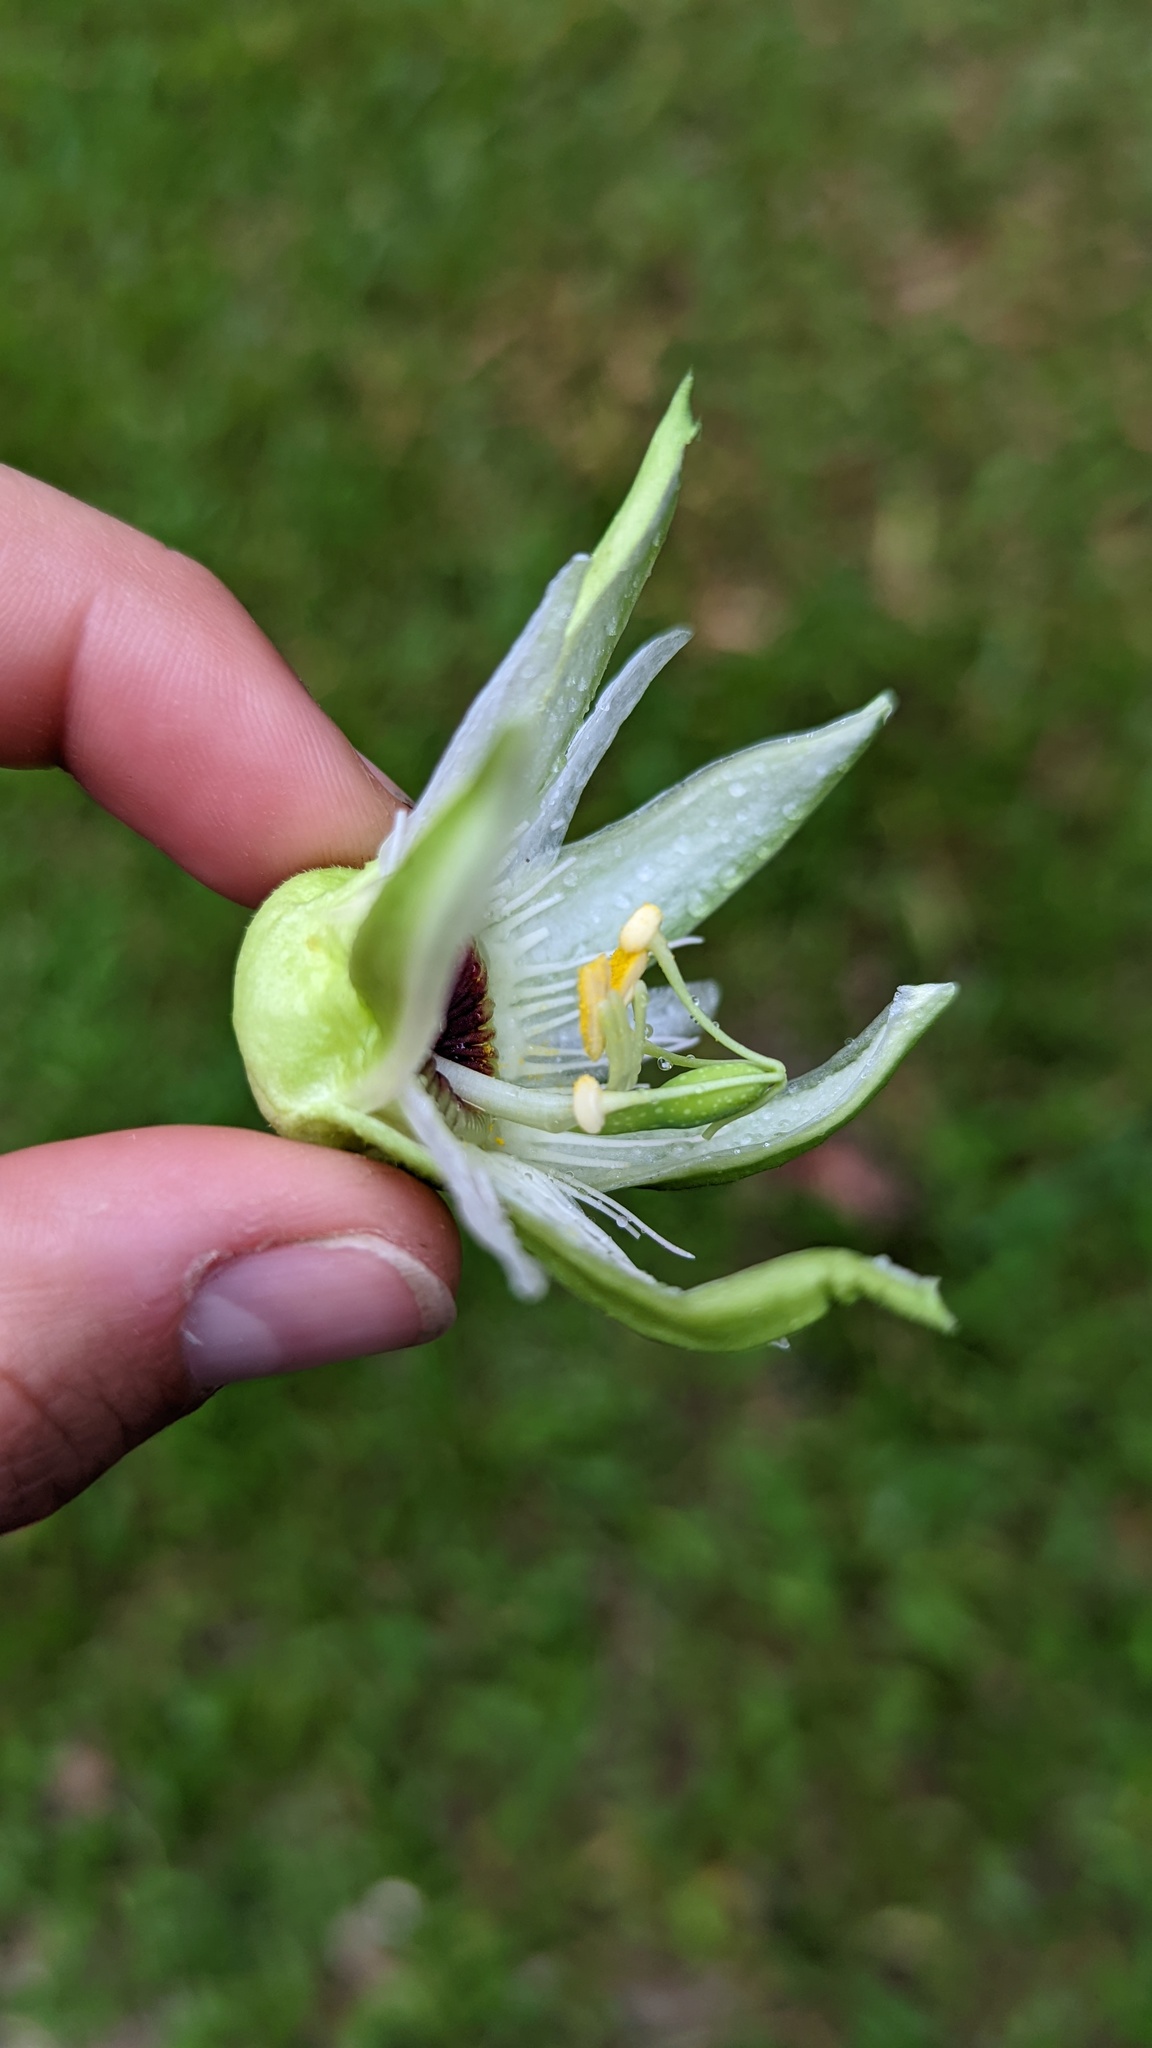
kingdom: Plantae
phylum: Tracheophyta
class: Magnoliopsida
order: Malpighiales
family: Passifloraceae
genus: Passiflora
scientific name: Passiflora lobata
